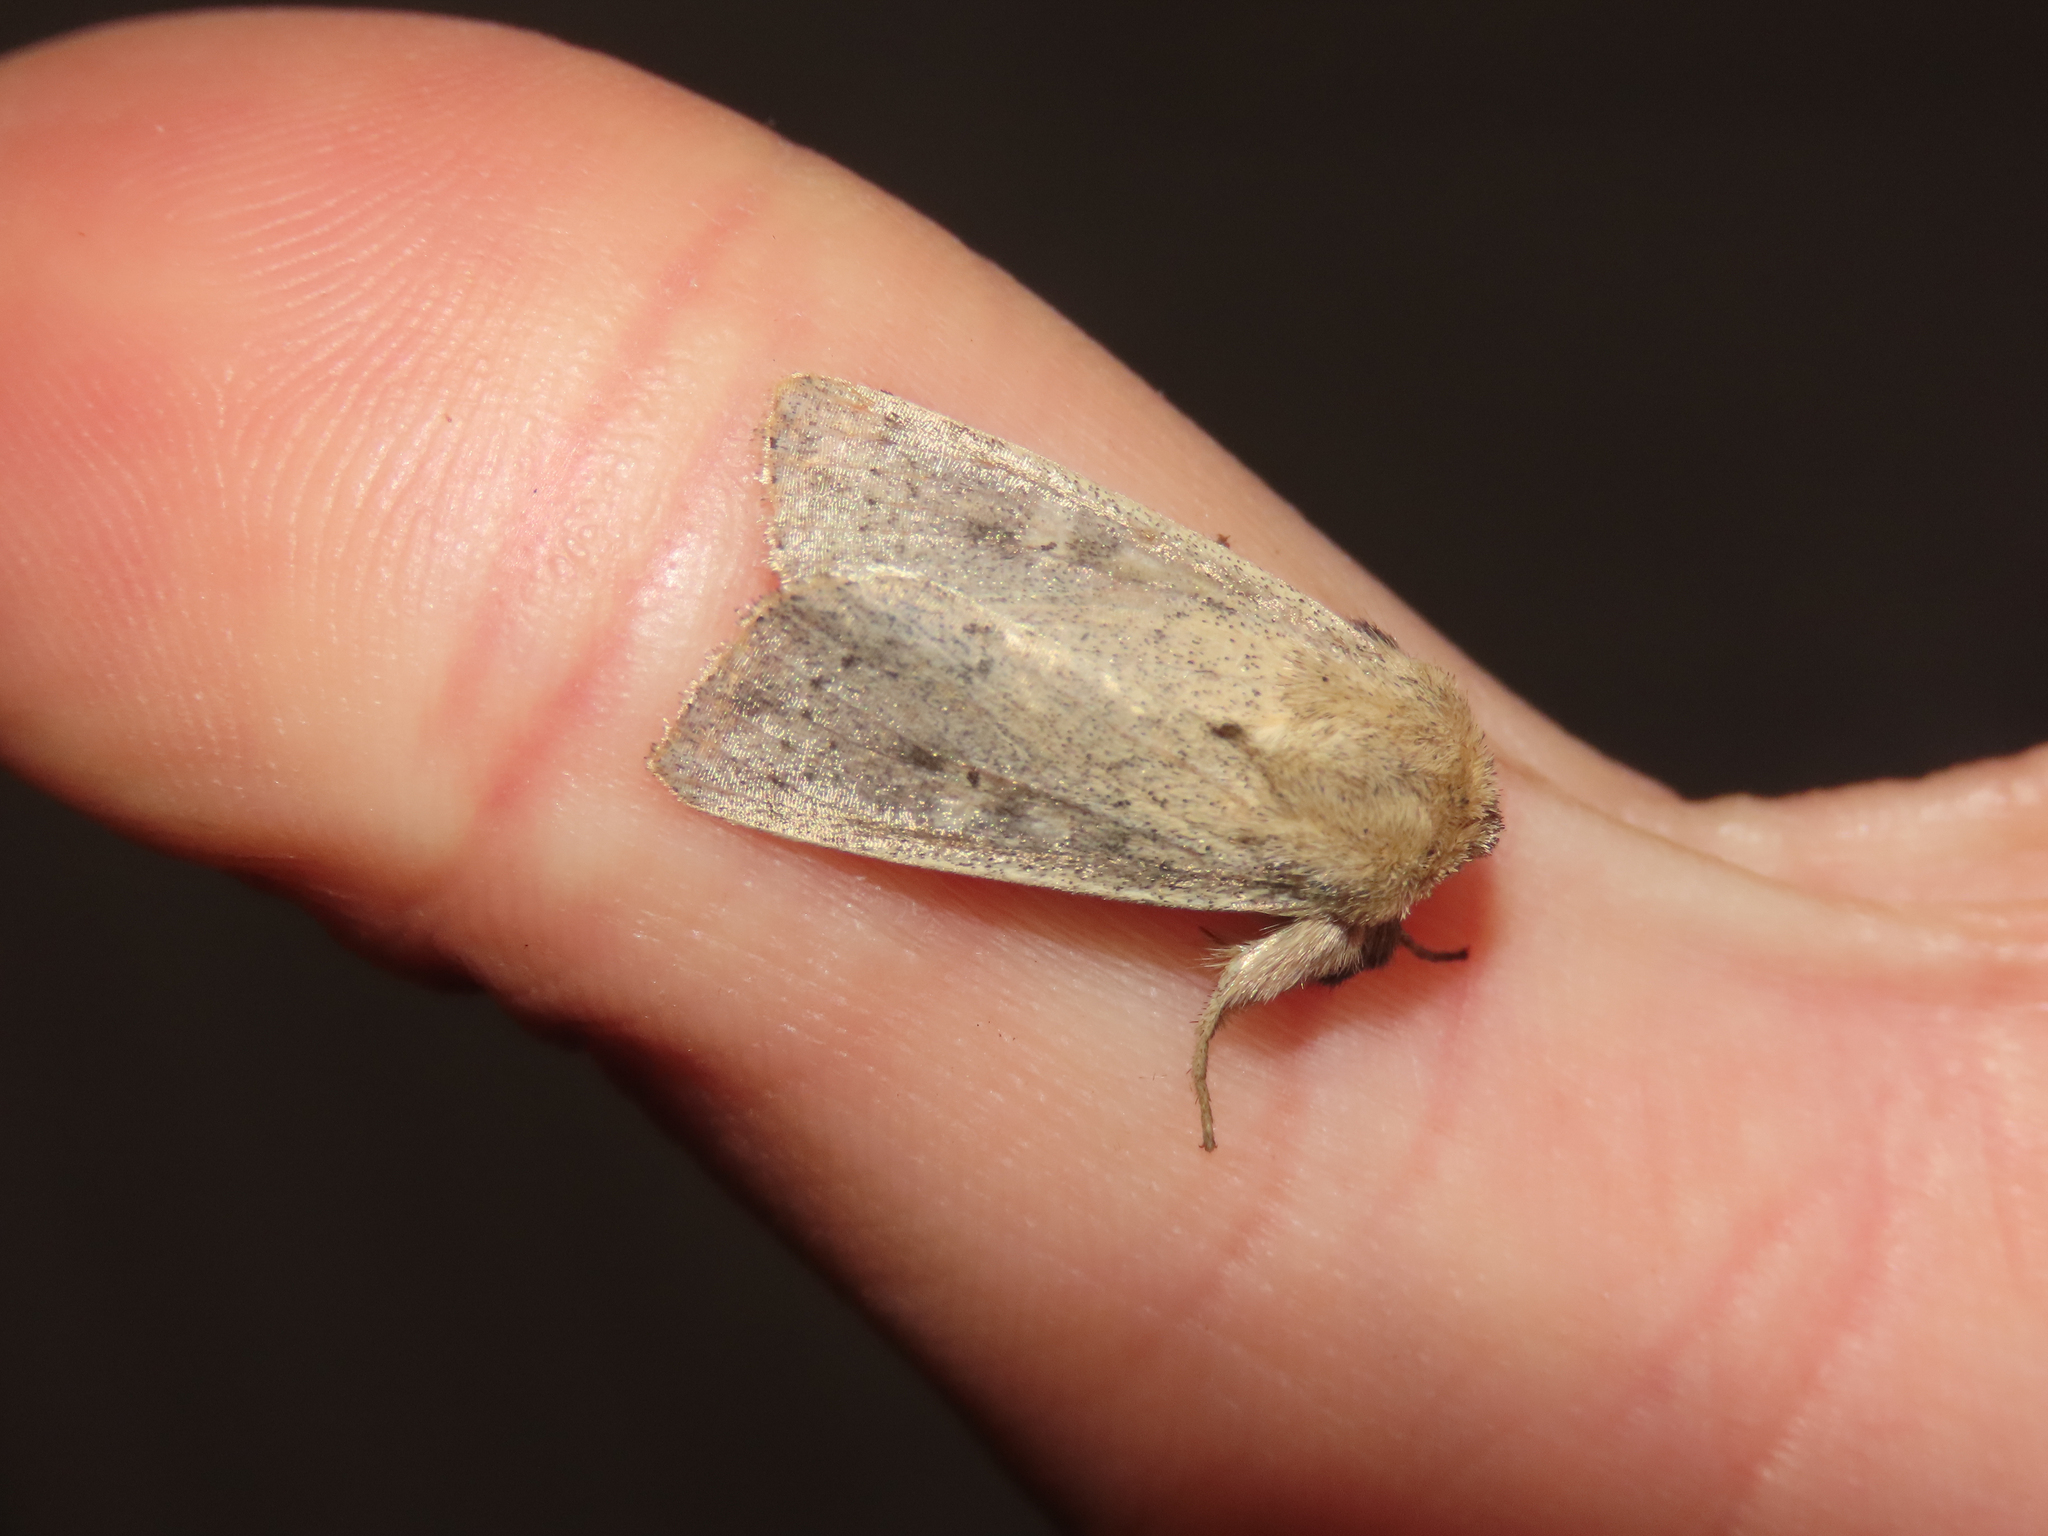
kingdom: Animalia
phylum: Arthropoda
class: Insecta
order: Lepidoptera
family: Noctuidae
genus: Leucania
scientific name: Leucania ursula
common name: Ursula wainscot
